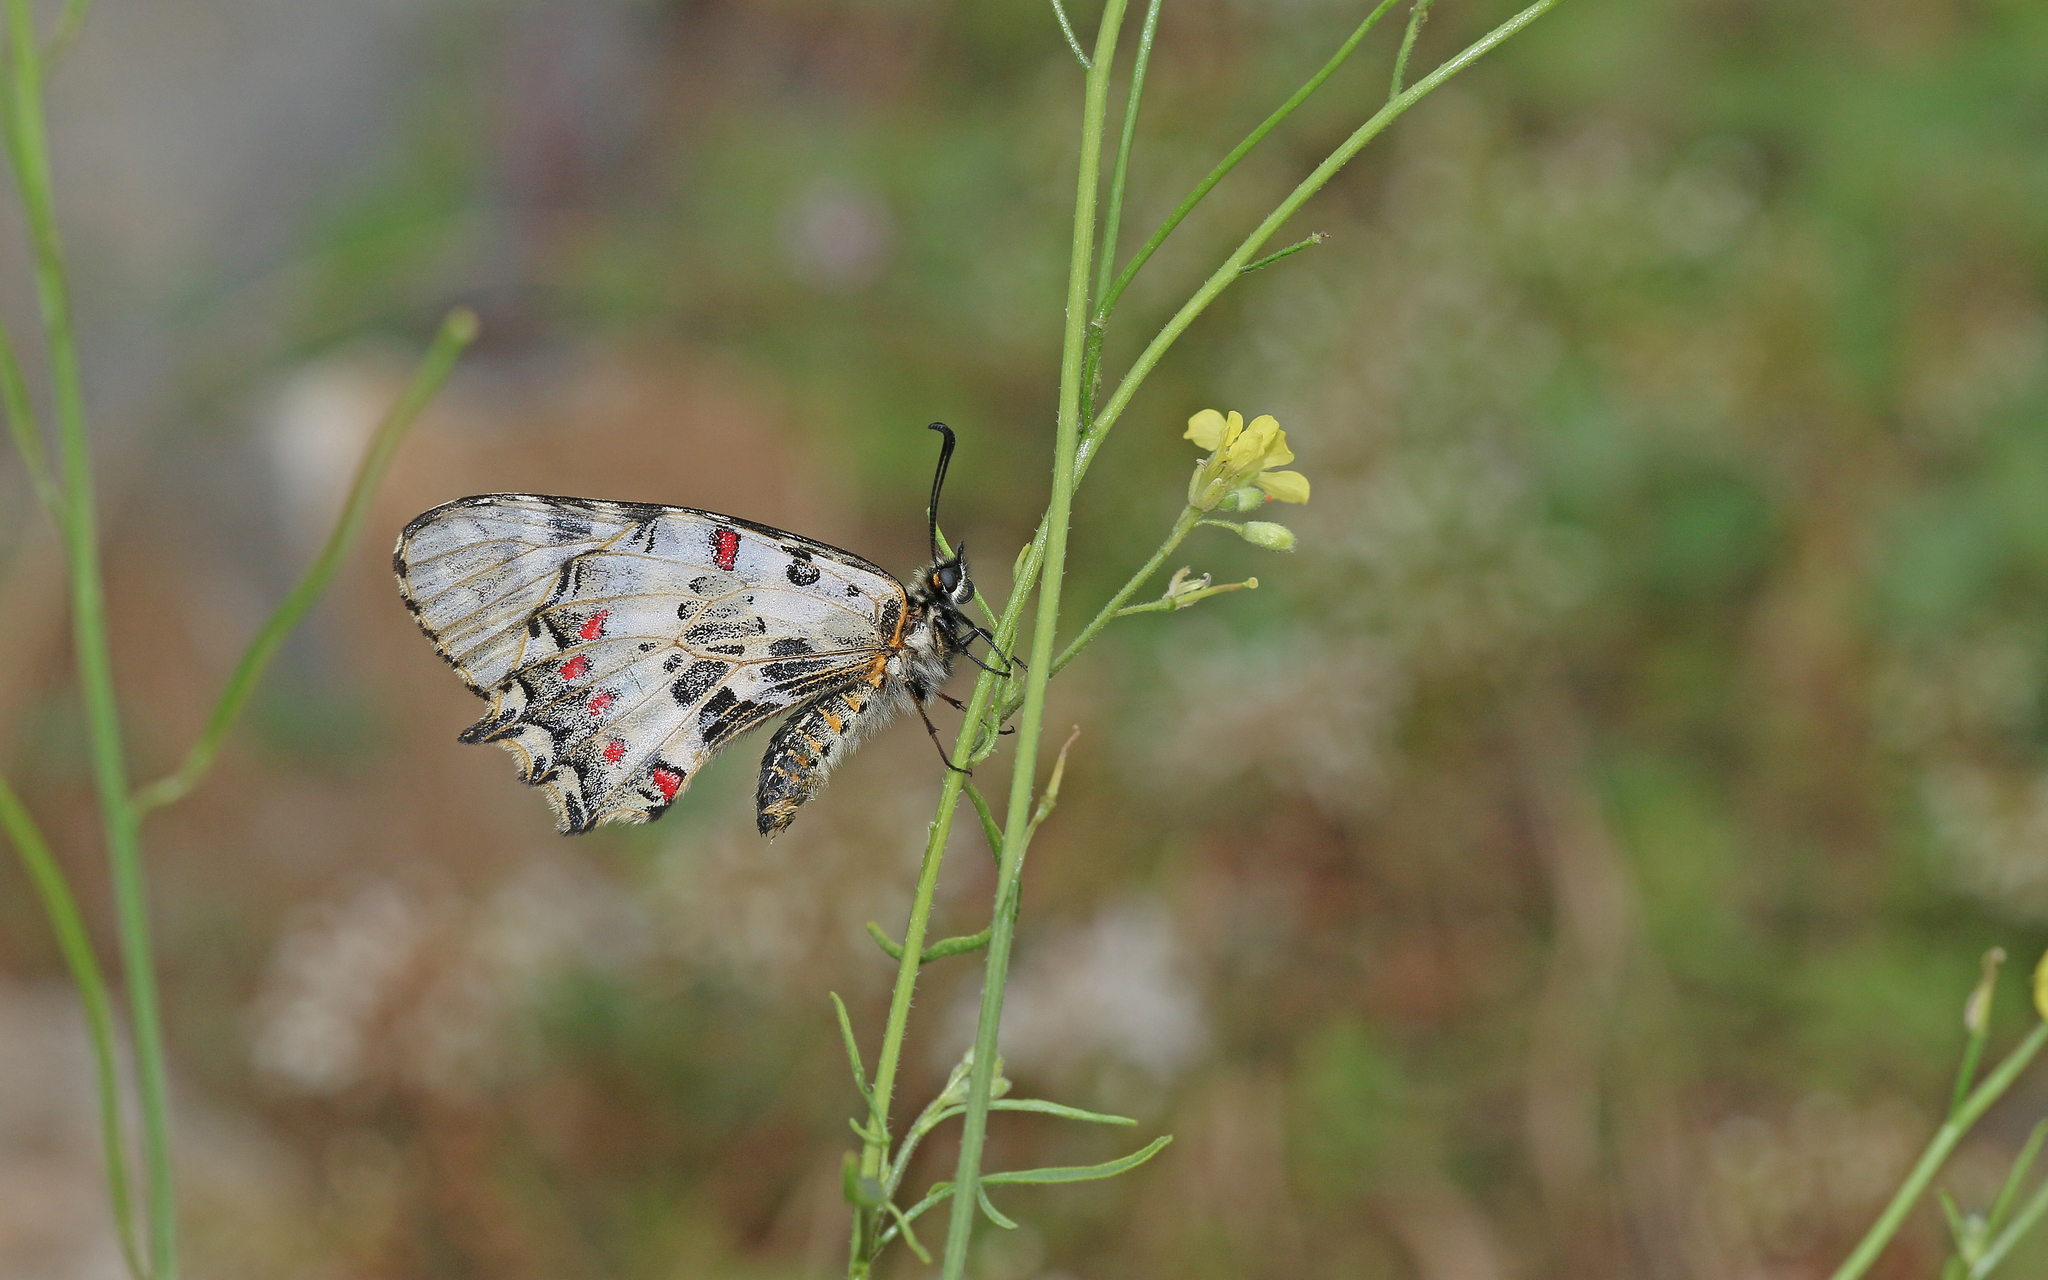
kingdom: Animalia
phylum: Arthropoda
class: Insecta
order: Lepidoptera
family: Papilionidae
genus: Zerynthia
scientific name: Zerynthia cerisy
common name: Eastern festoon
